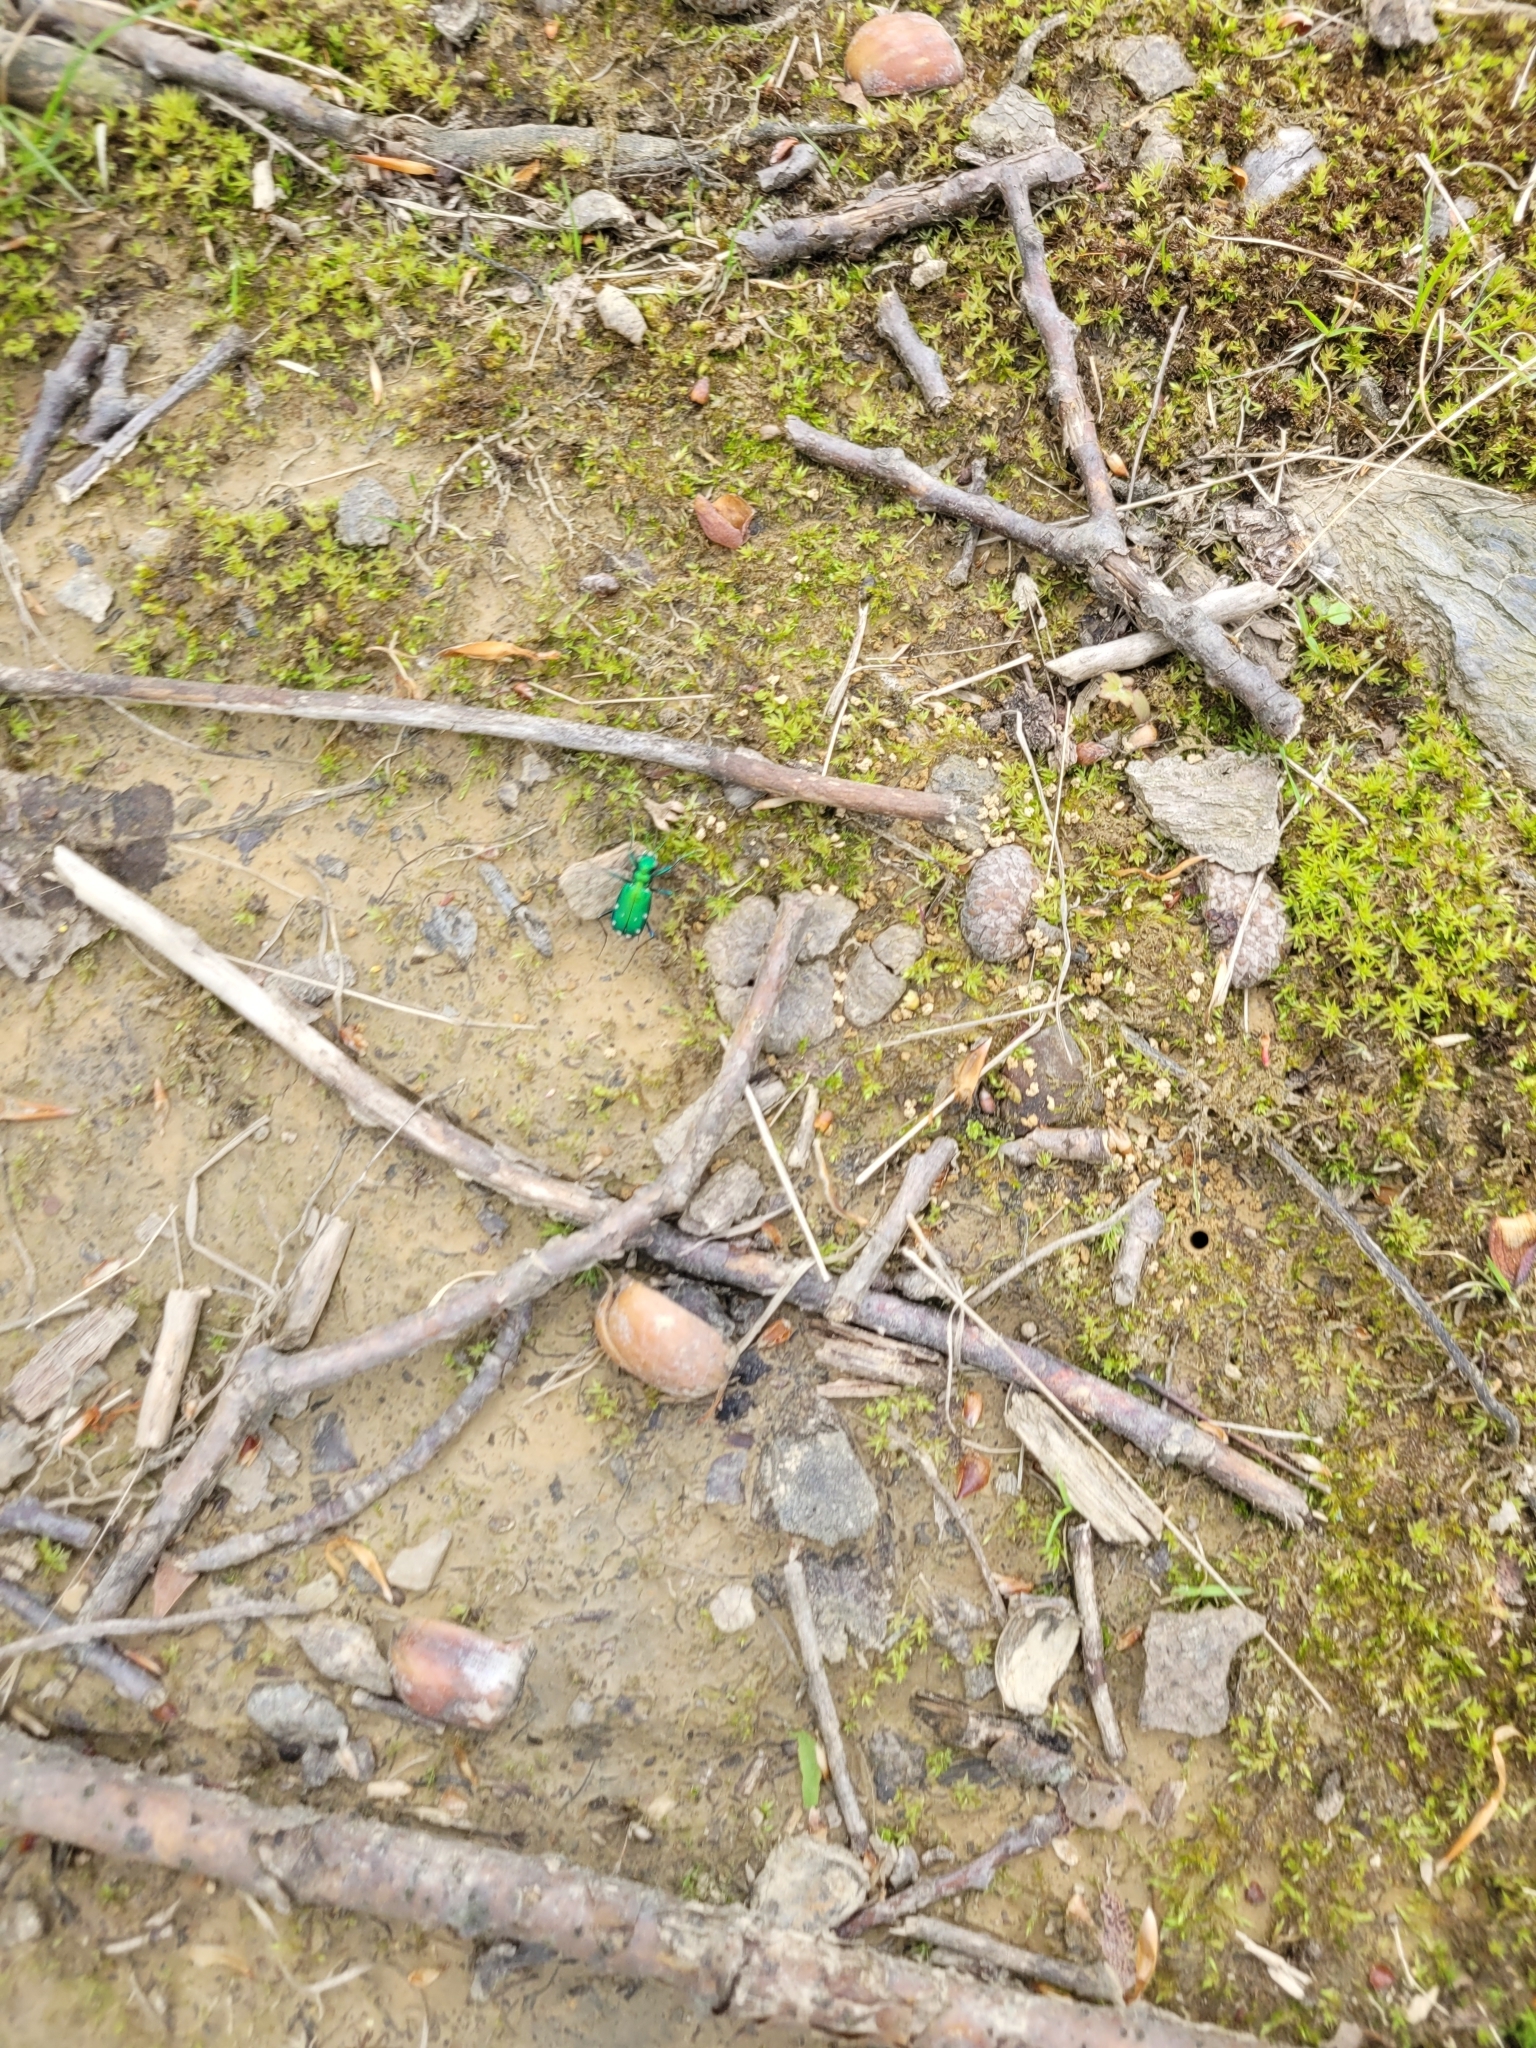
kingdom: Animalia
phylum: Arthropoda
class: Insecta
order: Coleoptera
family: Carabidae
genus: Cicindela
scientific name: Cicindela sexguttata
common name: Six-spotted tiger beetle
